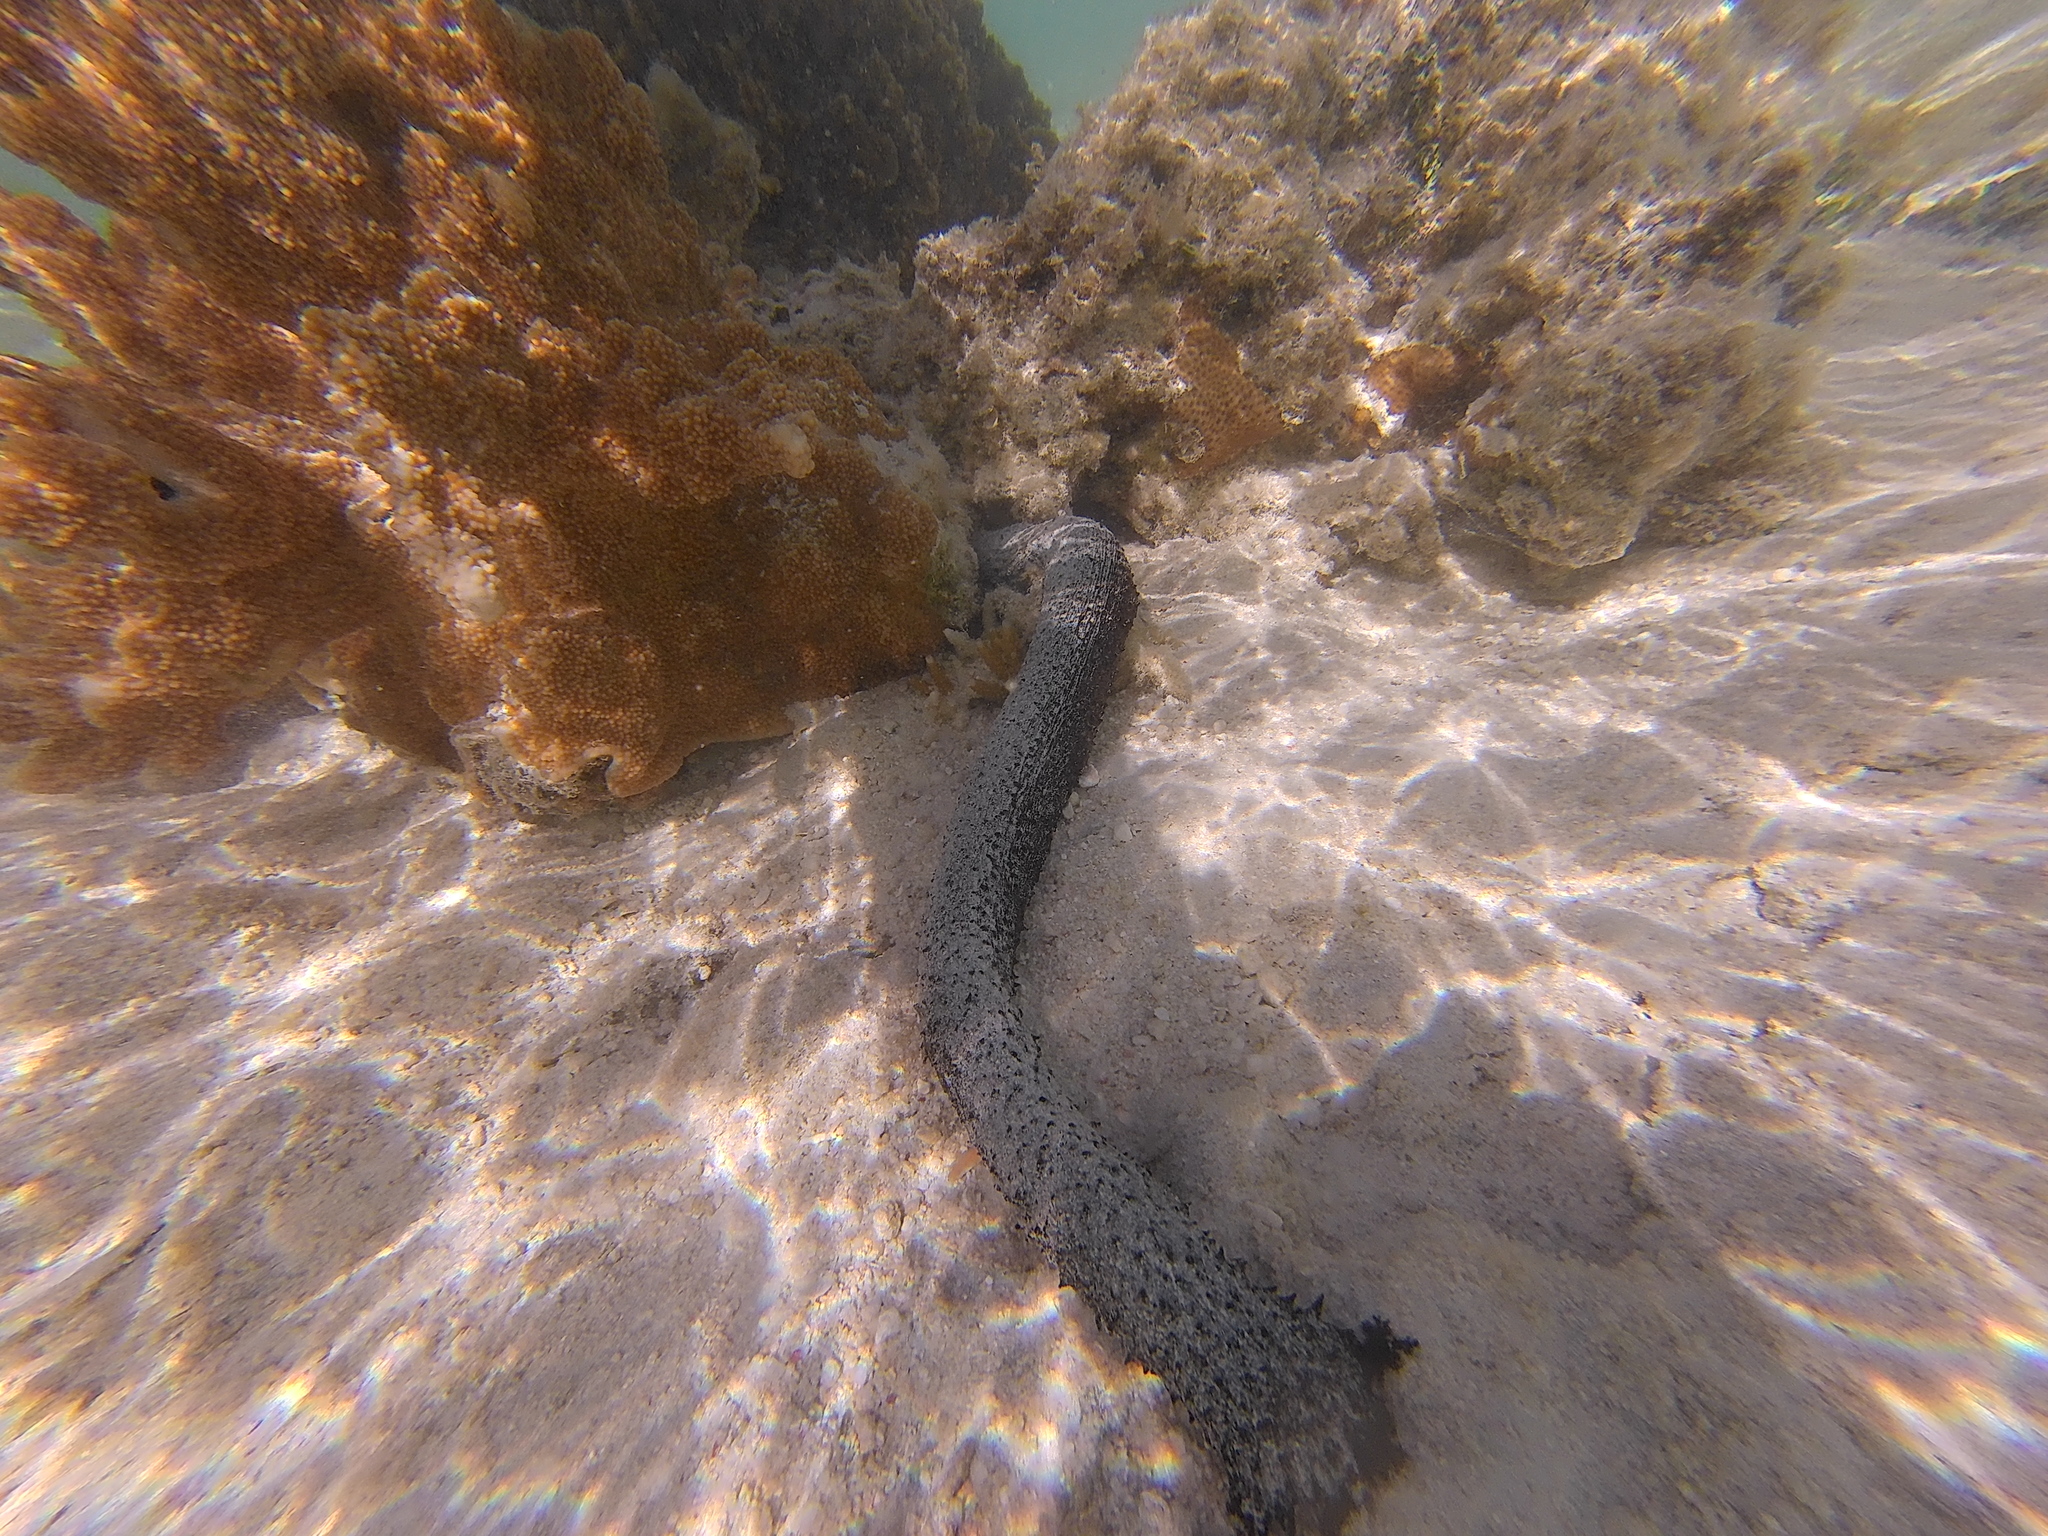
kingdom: Animalia
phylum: Echinodermata
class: Holothuroidea
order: Holothuriida
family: Holothuriidae
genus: Holothuria
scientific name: Holothuria leucospilota
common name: White thread fish
